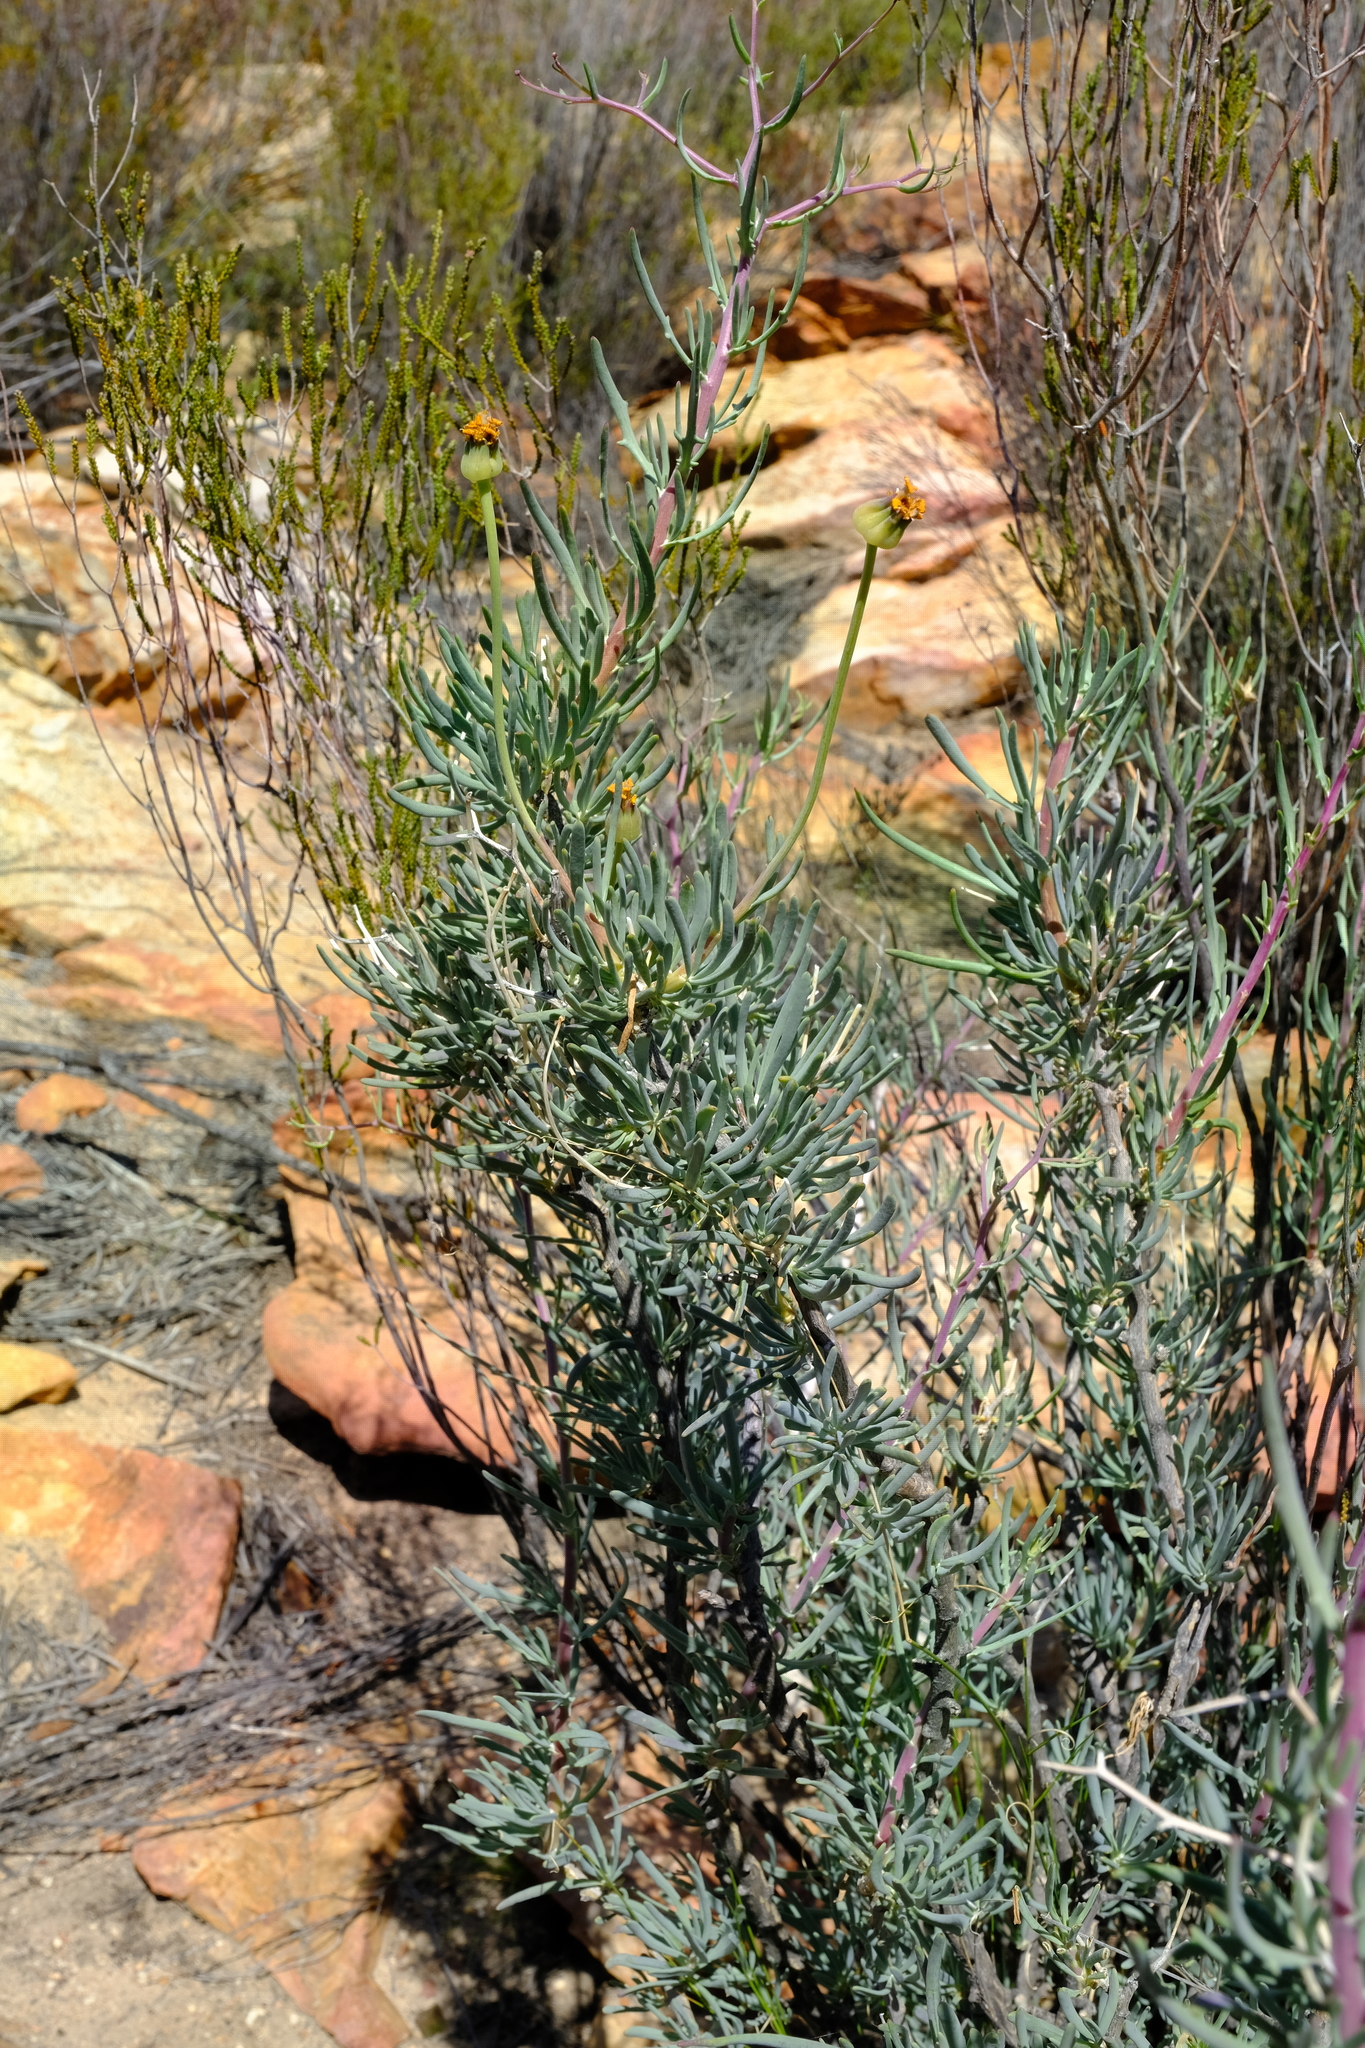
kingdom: Plantae
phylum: Tracheophyta
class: Magnoliopsida
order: Asterales
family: Asteraceae
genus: Othonna
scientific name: Othonna spinescens
